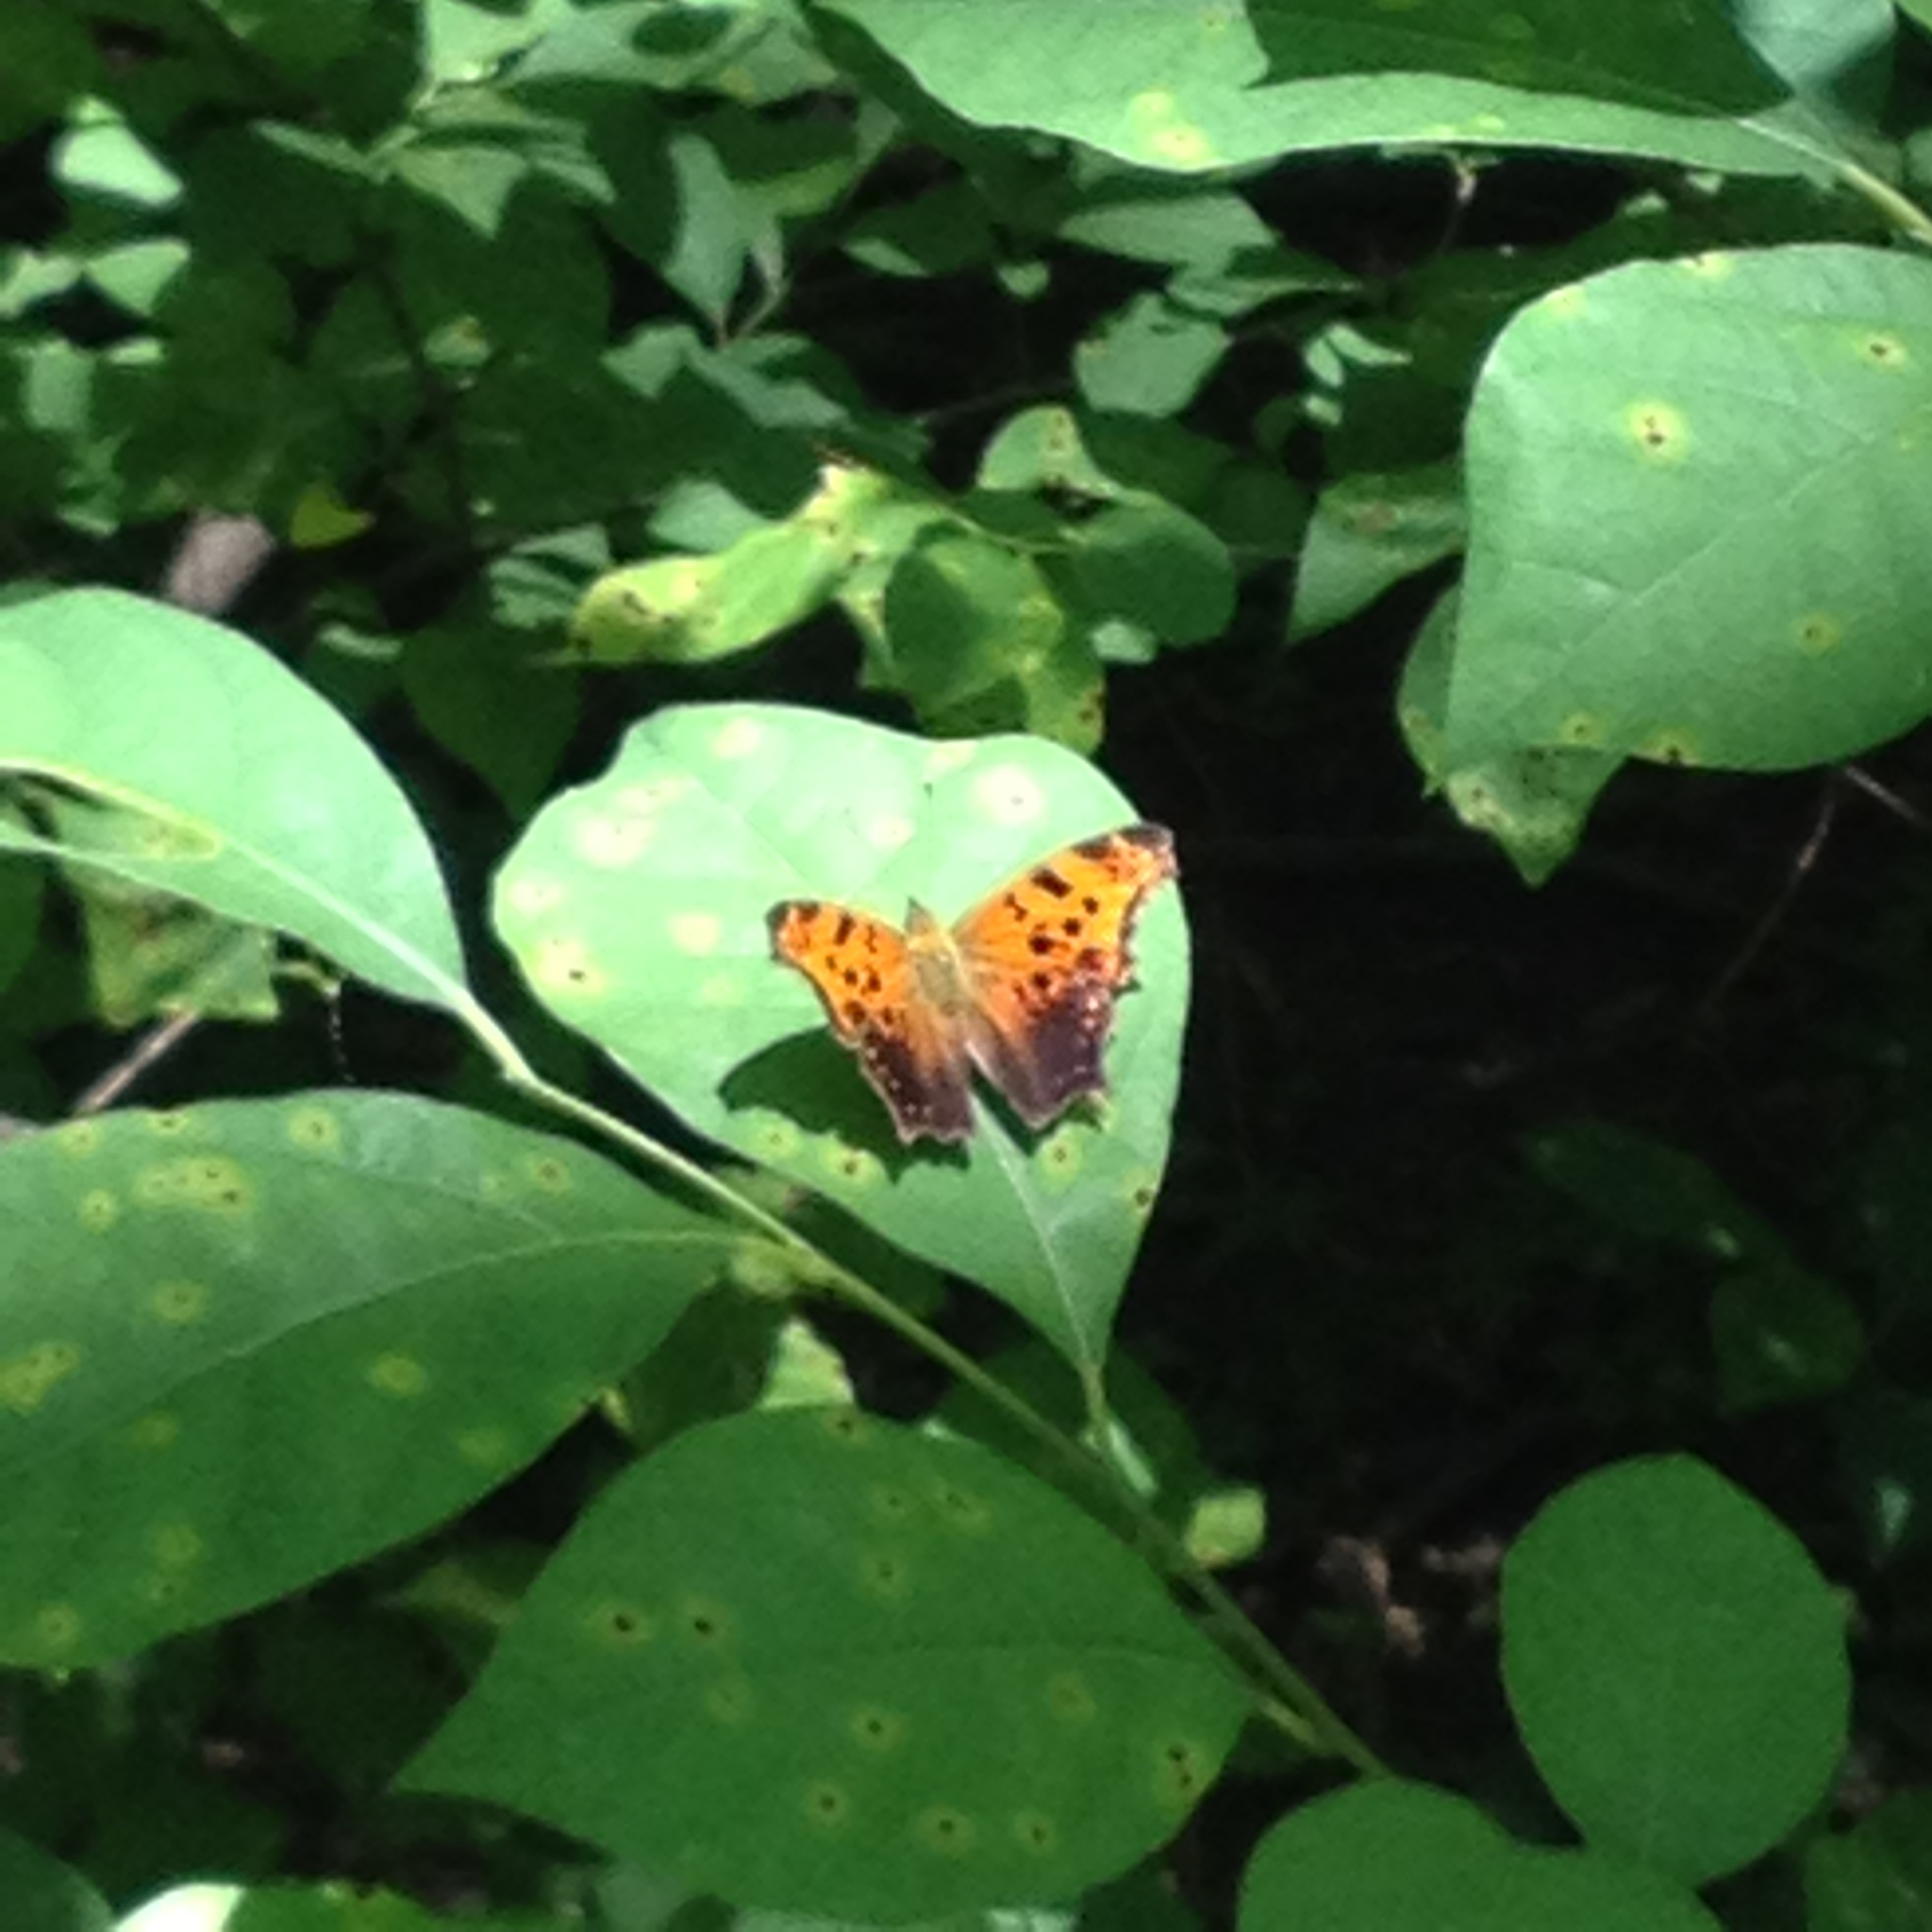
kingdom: Animalia
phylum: Arthropoda
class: Insecta
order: Lepidoptera
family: Nymphalidae
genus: Polygonia
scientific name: Polygonia comma
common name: Eastern comma
